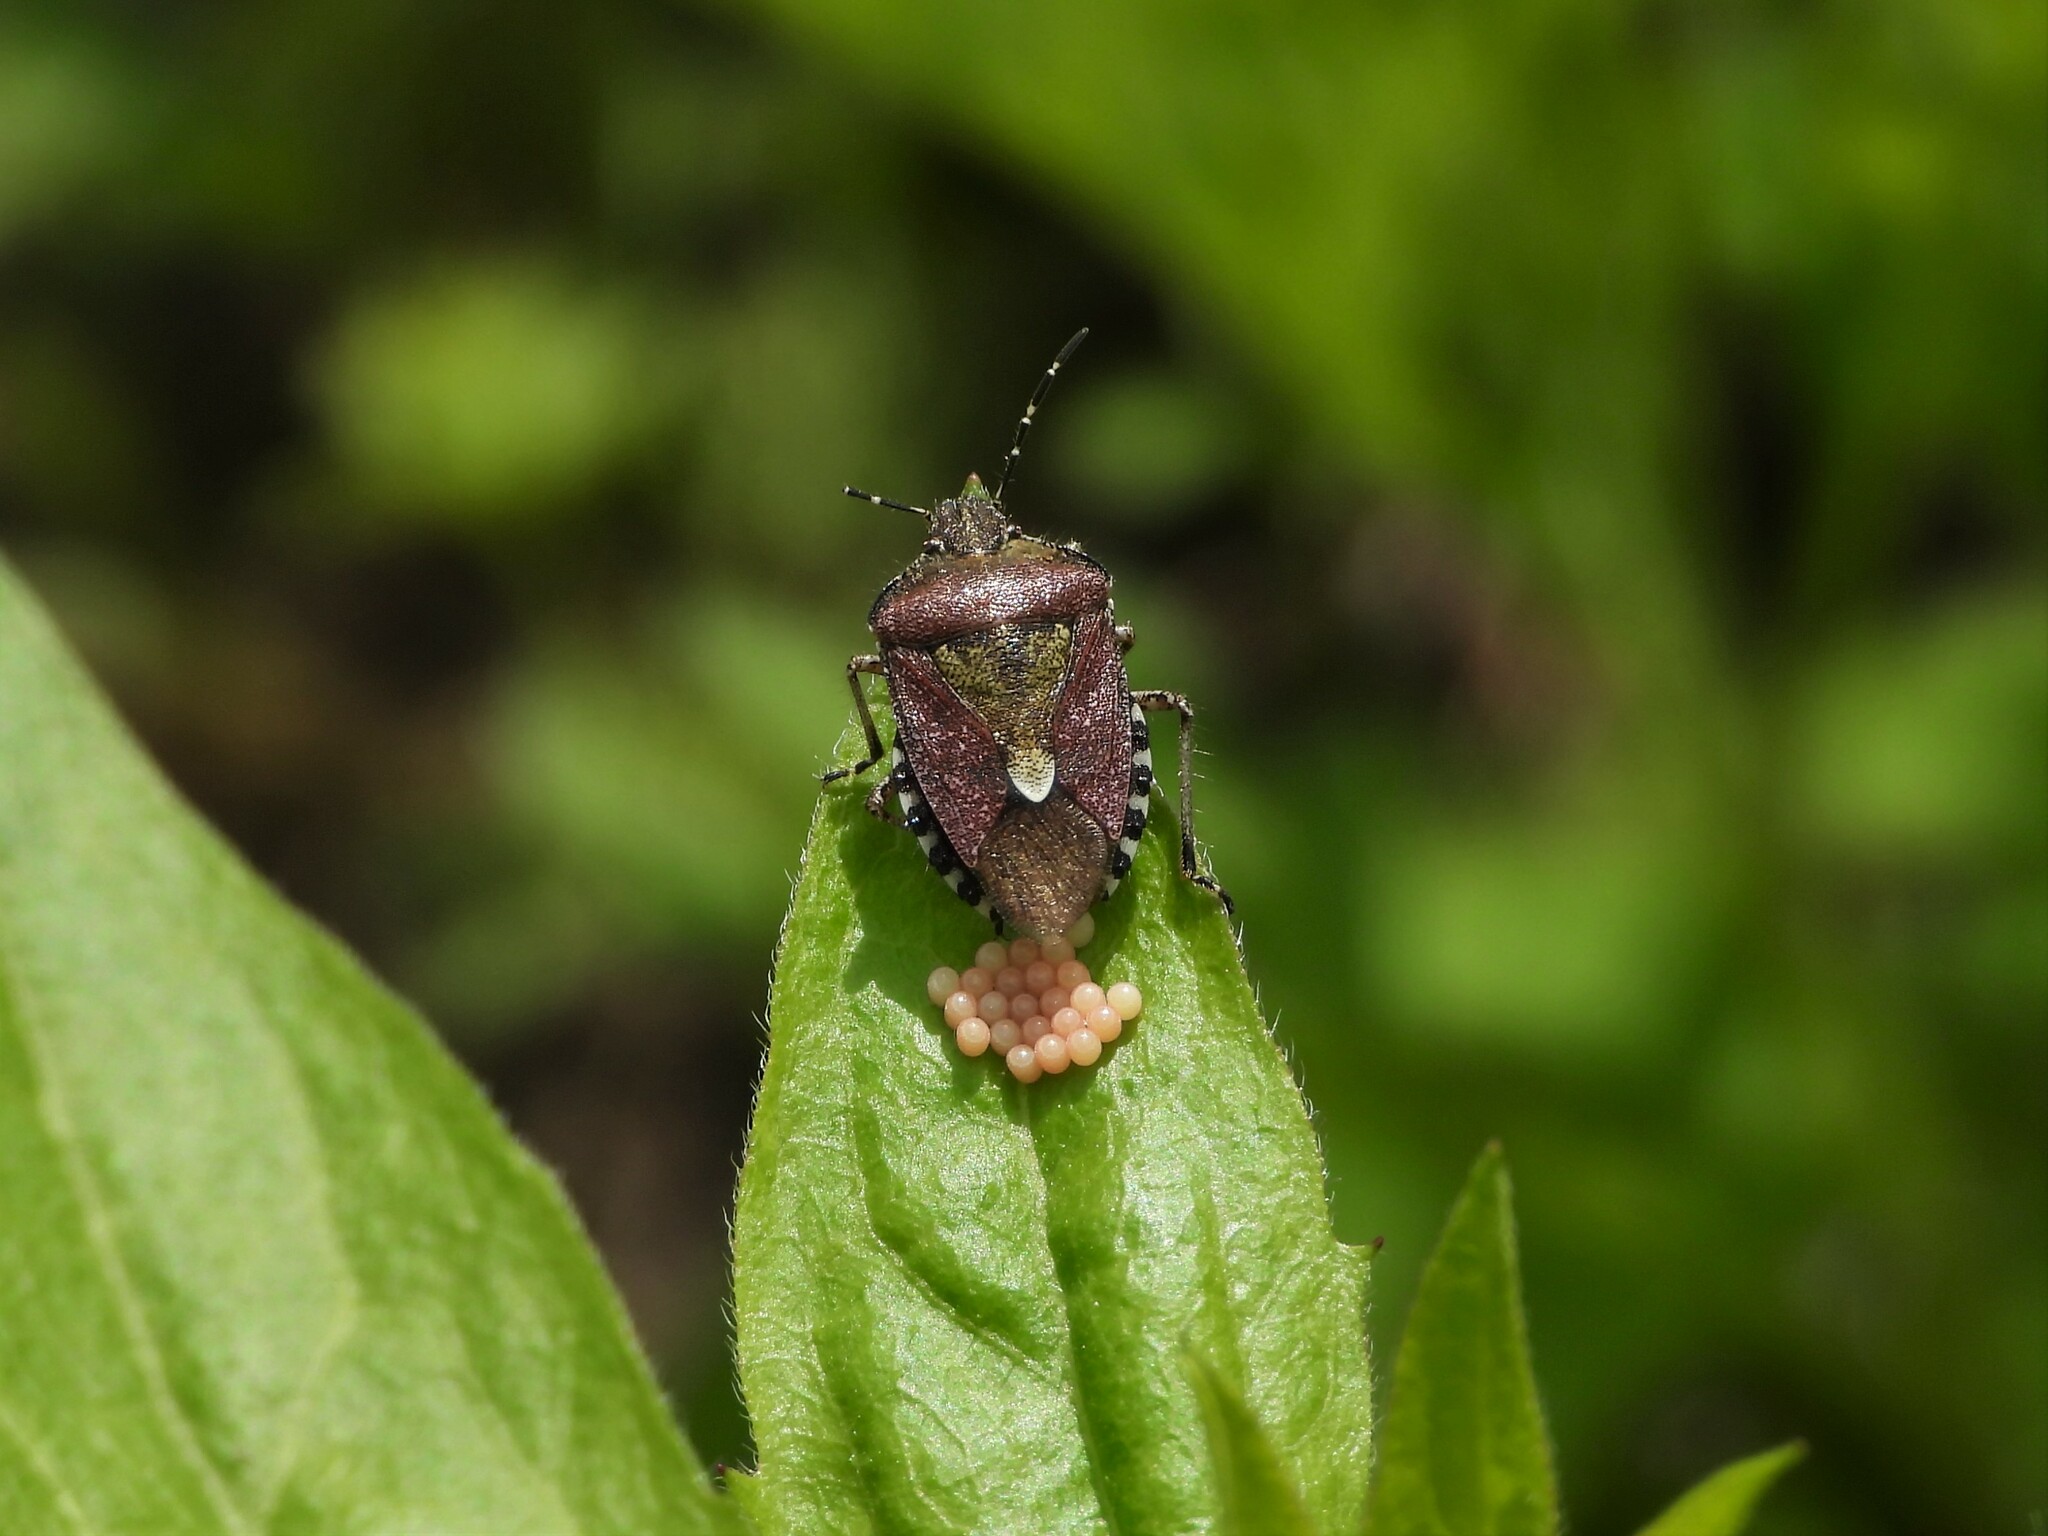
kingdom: Animalia
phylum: Arthropoda
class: Insecta
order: Hemiptera
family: Pentatomidae
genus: Dolycoris
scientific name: Dolycoris baccarum
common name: Sloe bug
